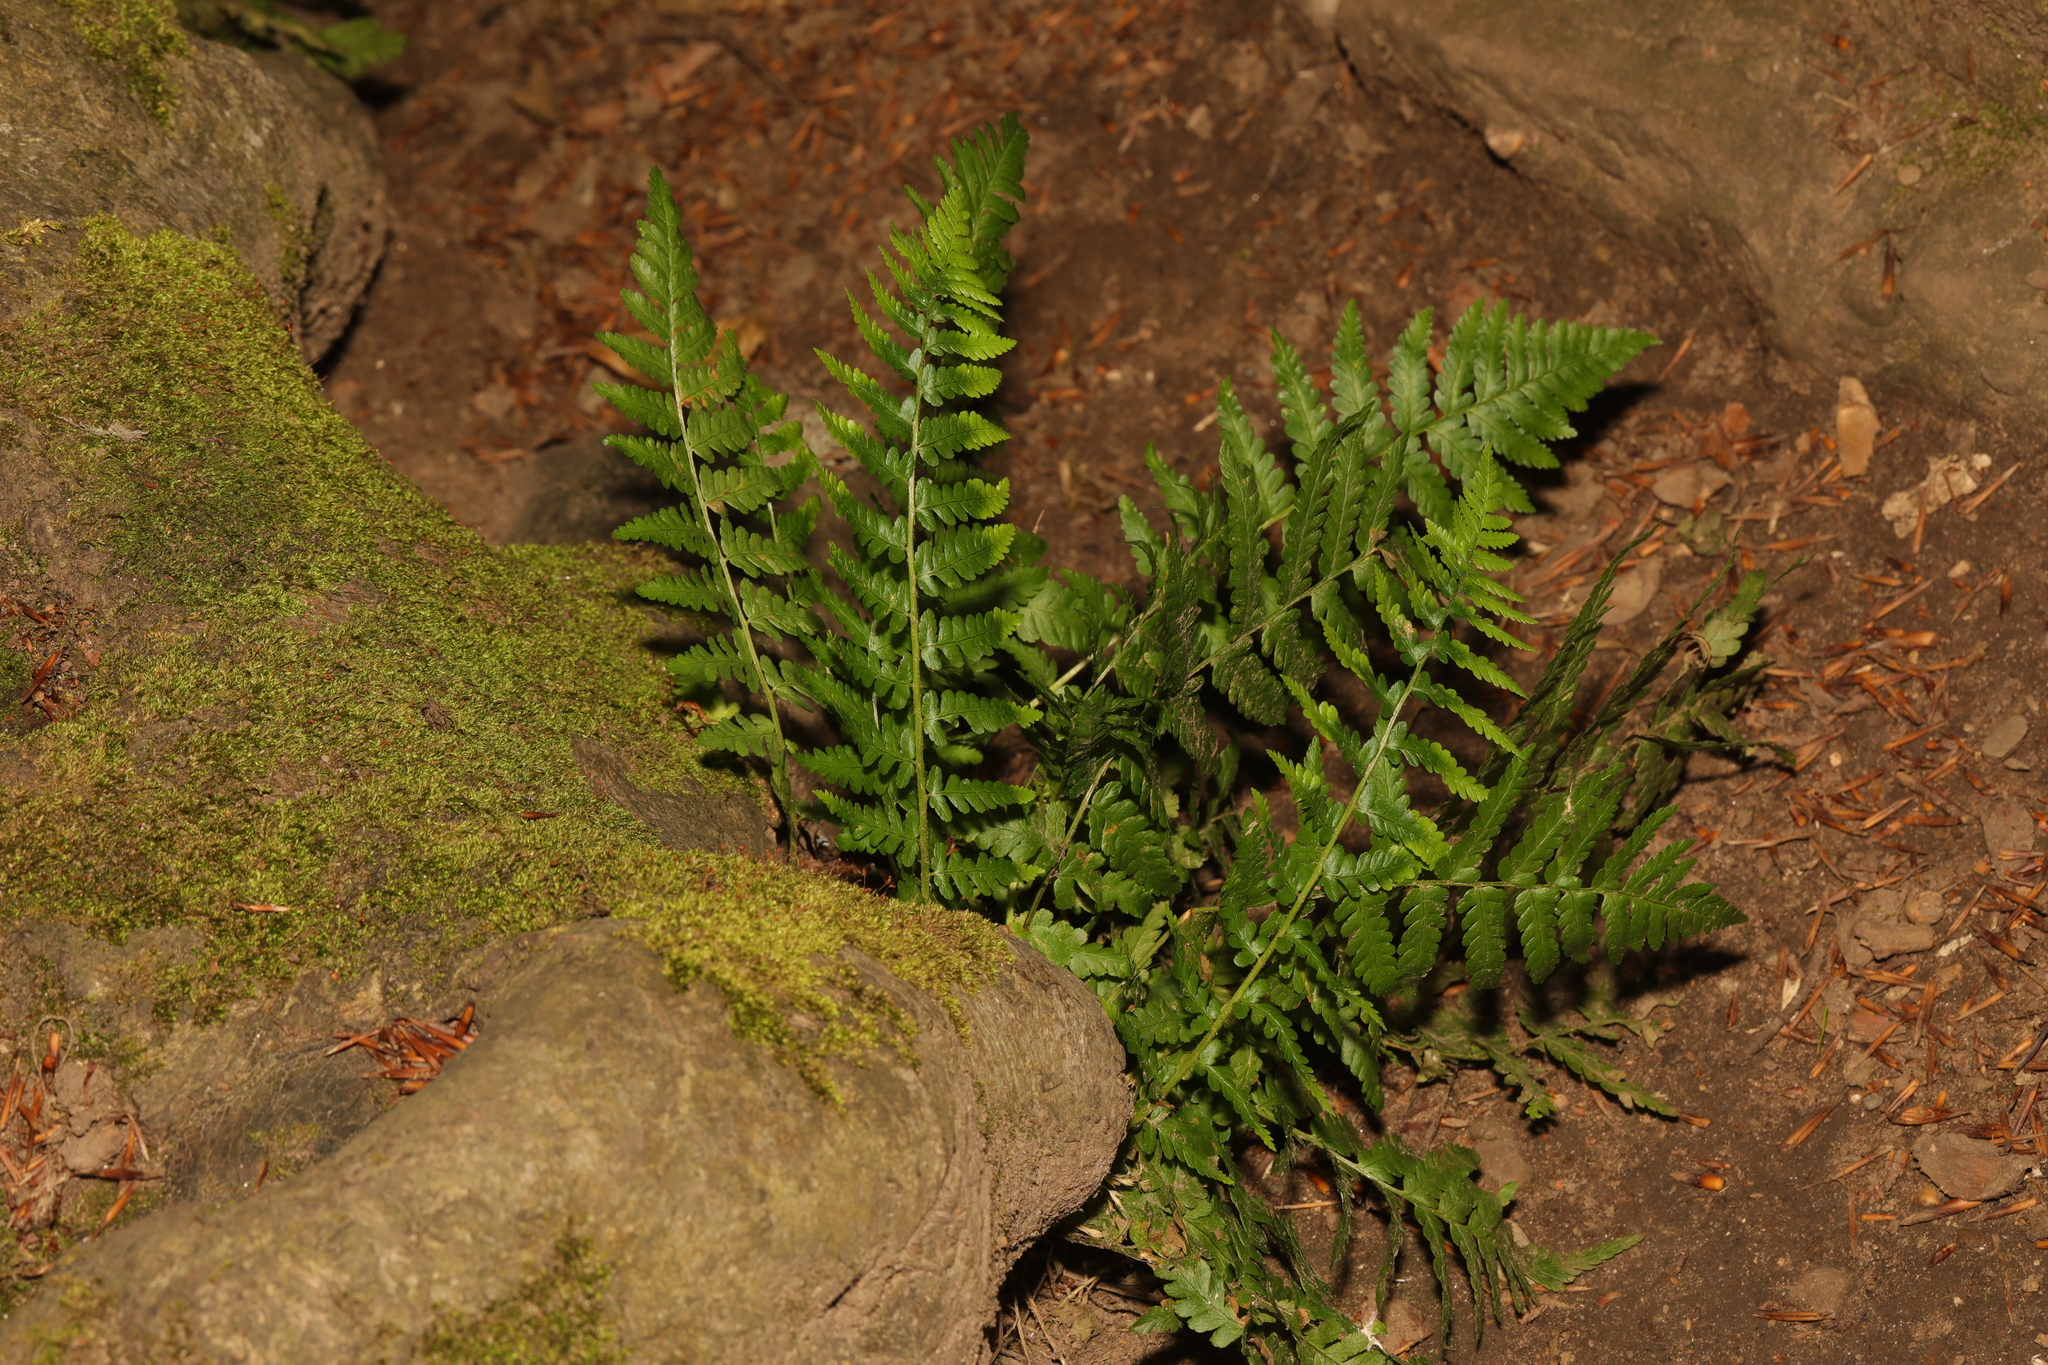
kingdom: Plantae
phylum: Tracheophyta
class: Polypodiopsida
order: Polypodiales
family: Dryopteridaceae
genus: Dryopteris
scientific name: Dryopteris filix-mas
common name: Male fern
